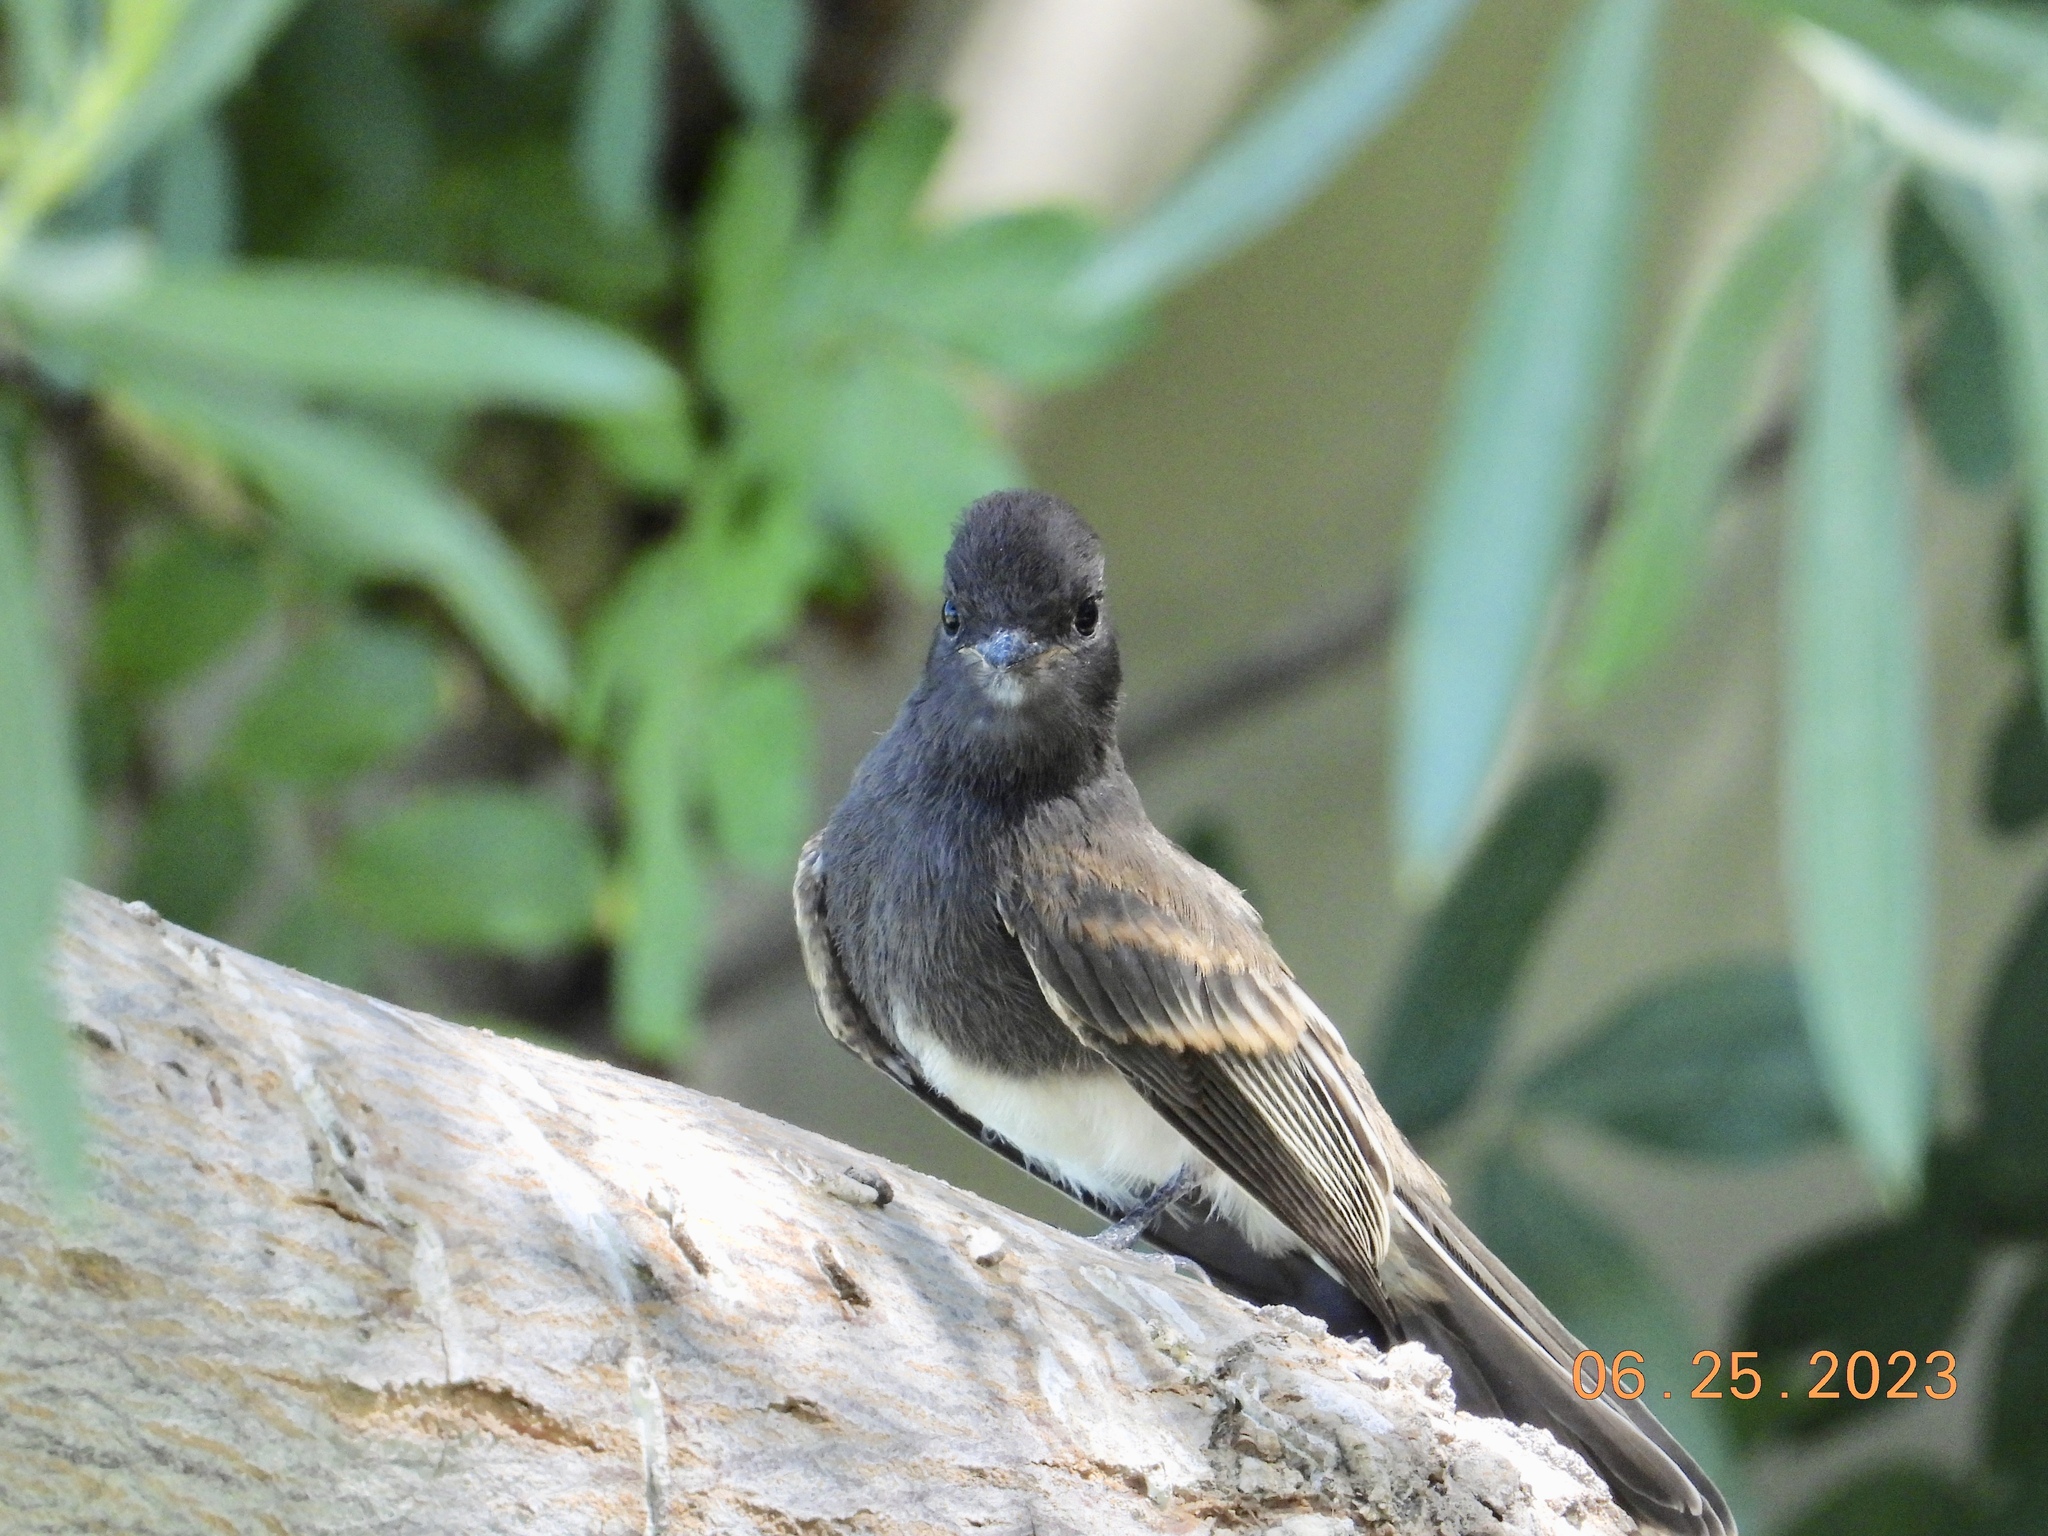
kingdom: Animalia
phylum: Chordata
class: Aves
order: Passeriformes
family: Tyrannidae
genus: Sayornis
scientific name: Sayornis nigricans
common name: Black phoebe
